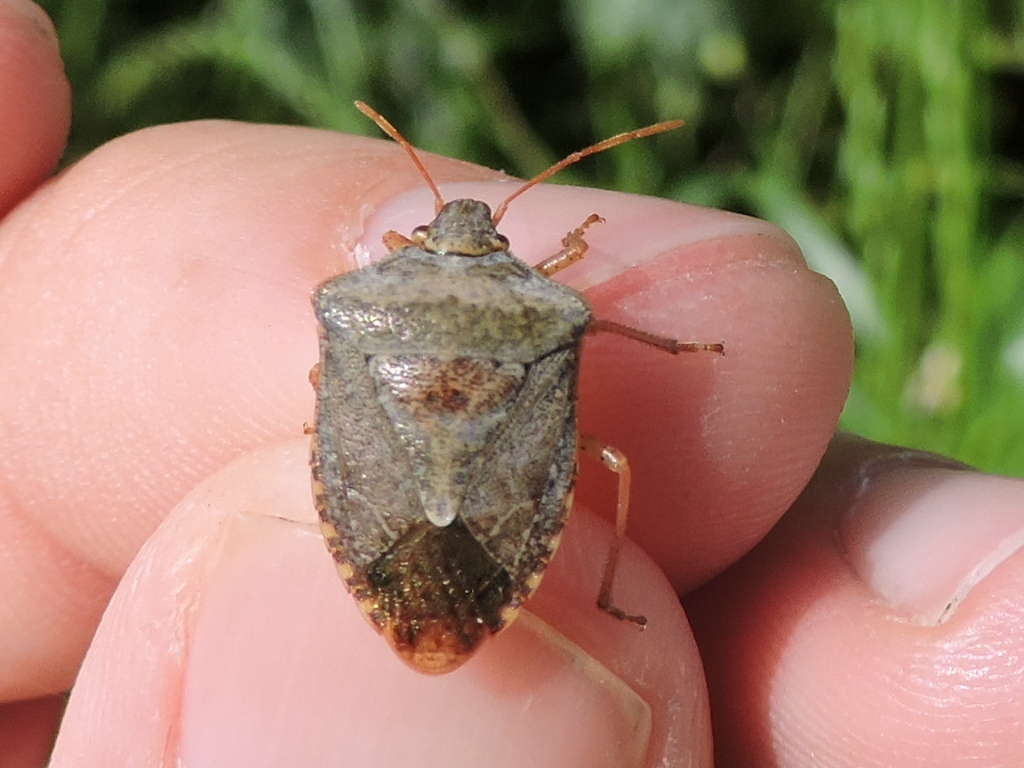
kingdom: Animalia
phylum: Arthropoda
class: Insecta
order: Hemiptera
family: Pentatomidae
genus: Euschistus
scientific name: Euschistus servus
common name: Brown stink bug
